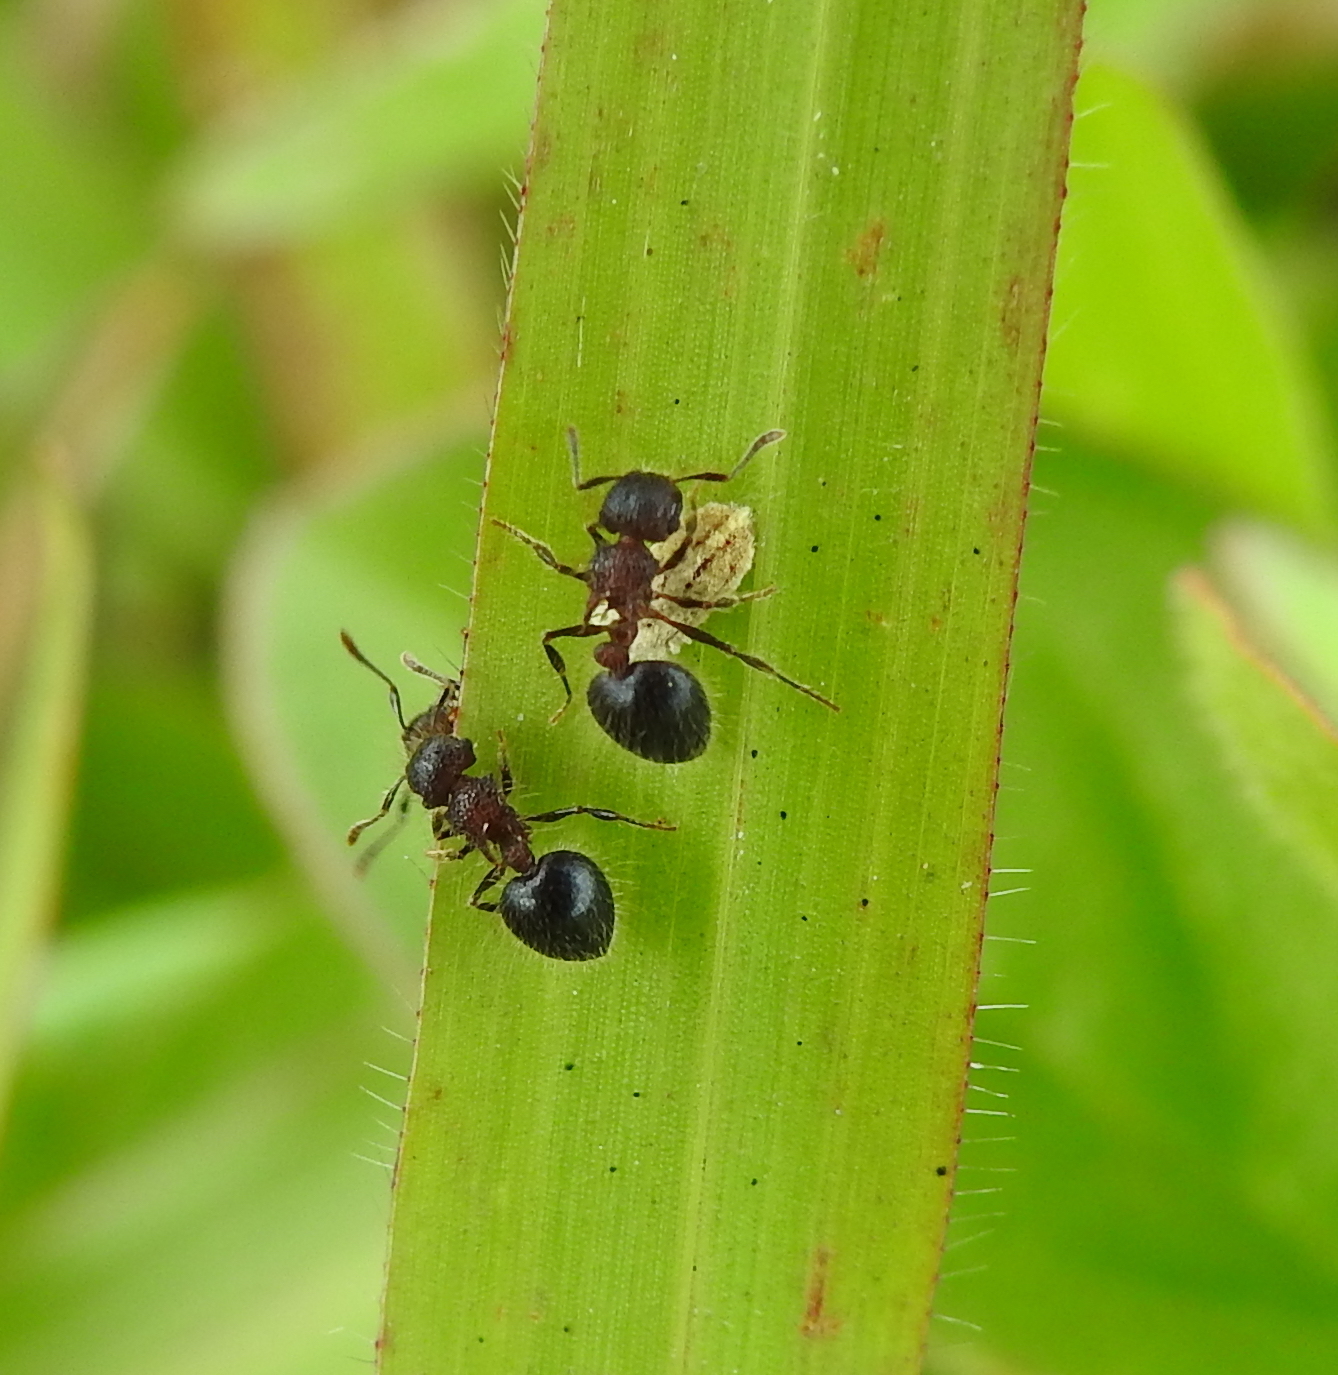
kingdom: Animalia
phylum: Arthropoda
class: Insecta
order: Hymenoptera
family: Formicidae
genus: Meranoplus
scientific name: Meranoplus bicolor
